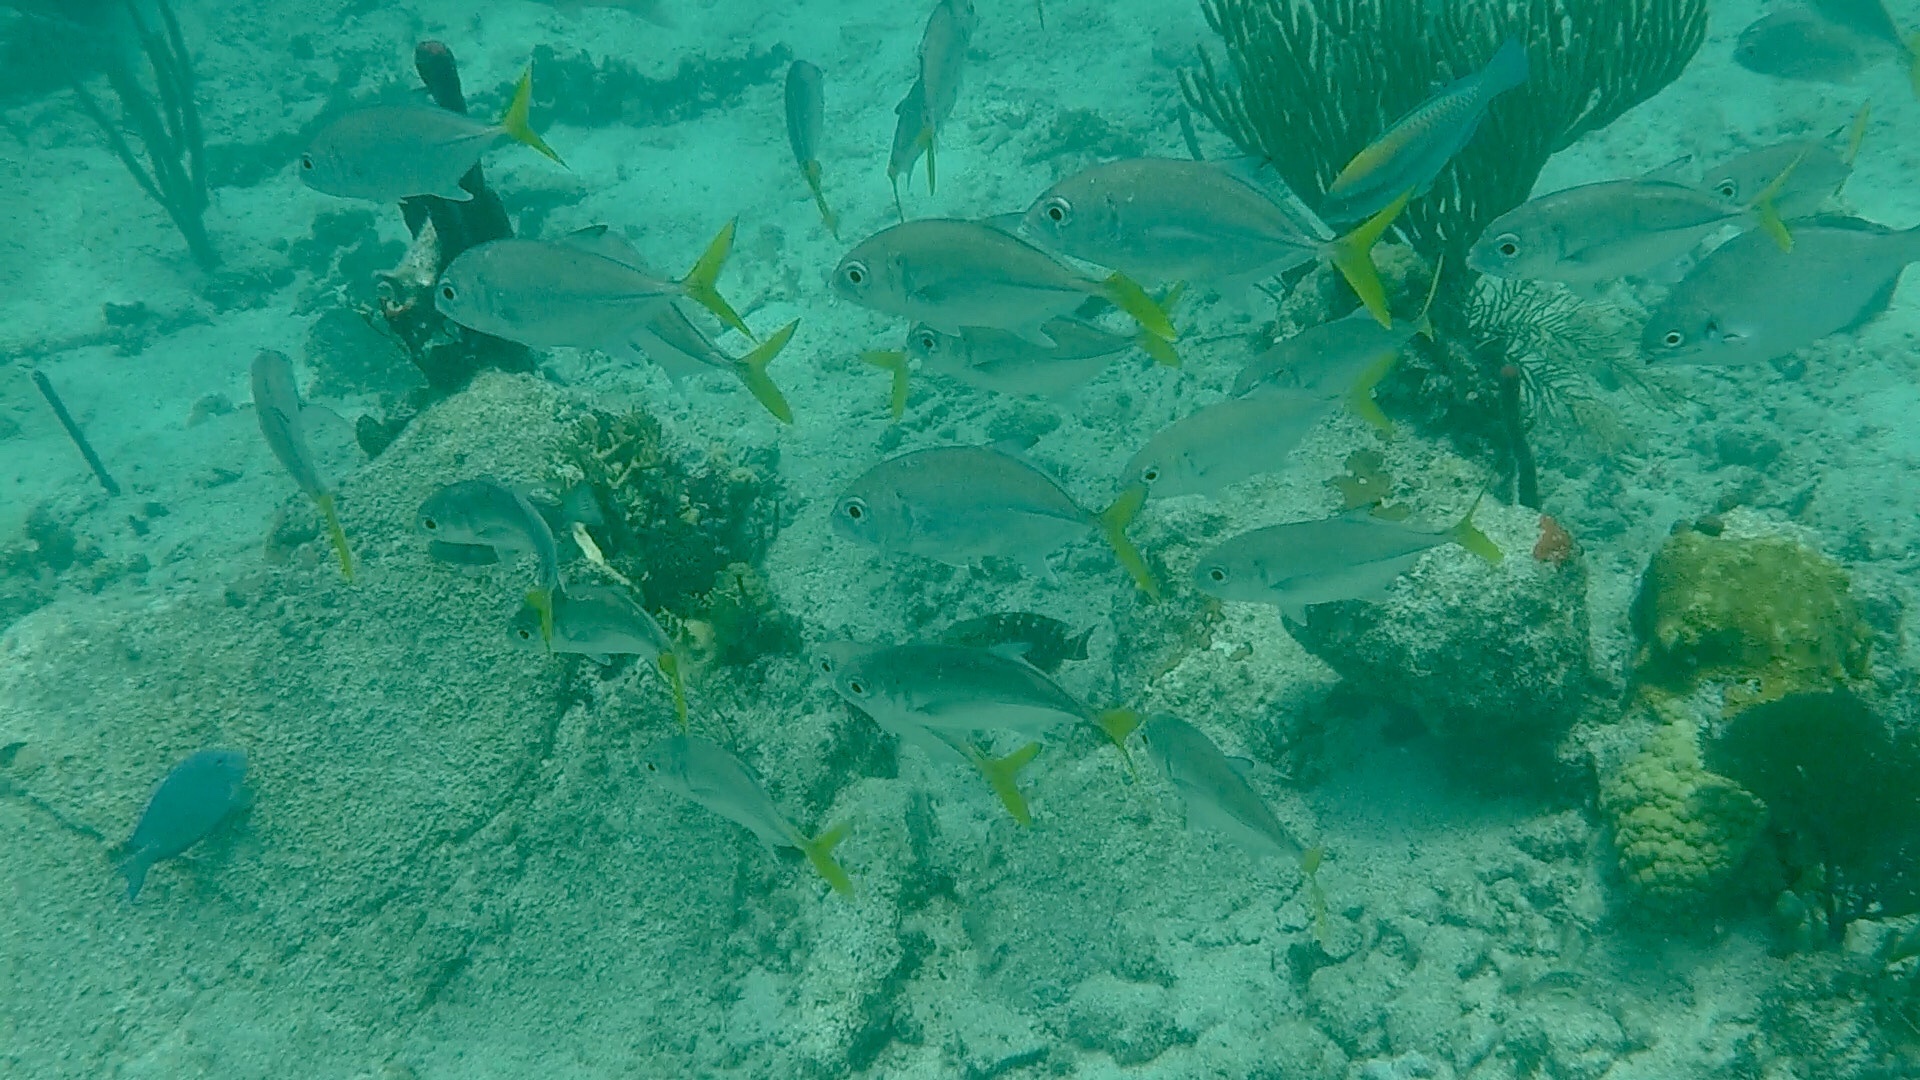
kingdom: Animalia
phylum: Chordata
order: Perciformes
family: Carangidae
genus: Caranx
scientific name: Caranx latus
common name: Horse eye jack
